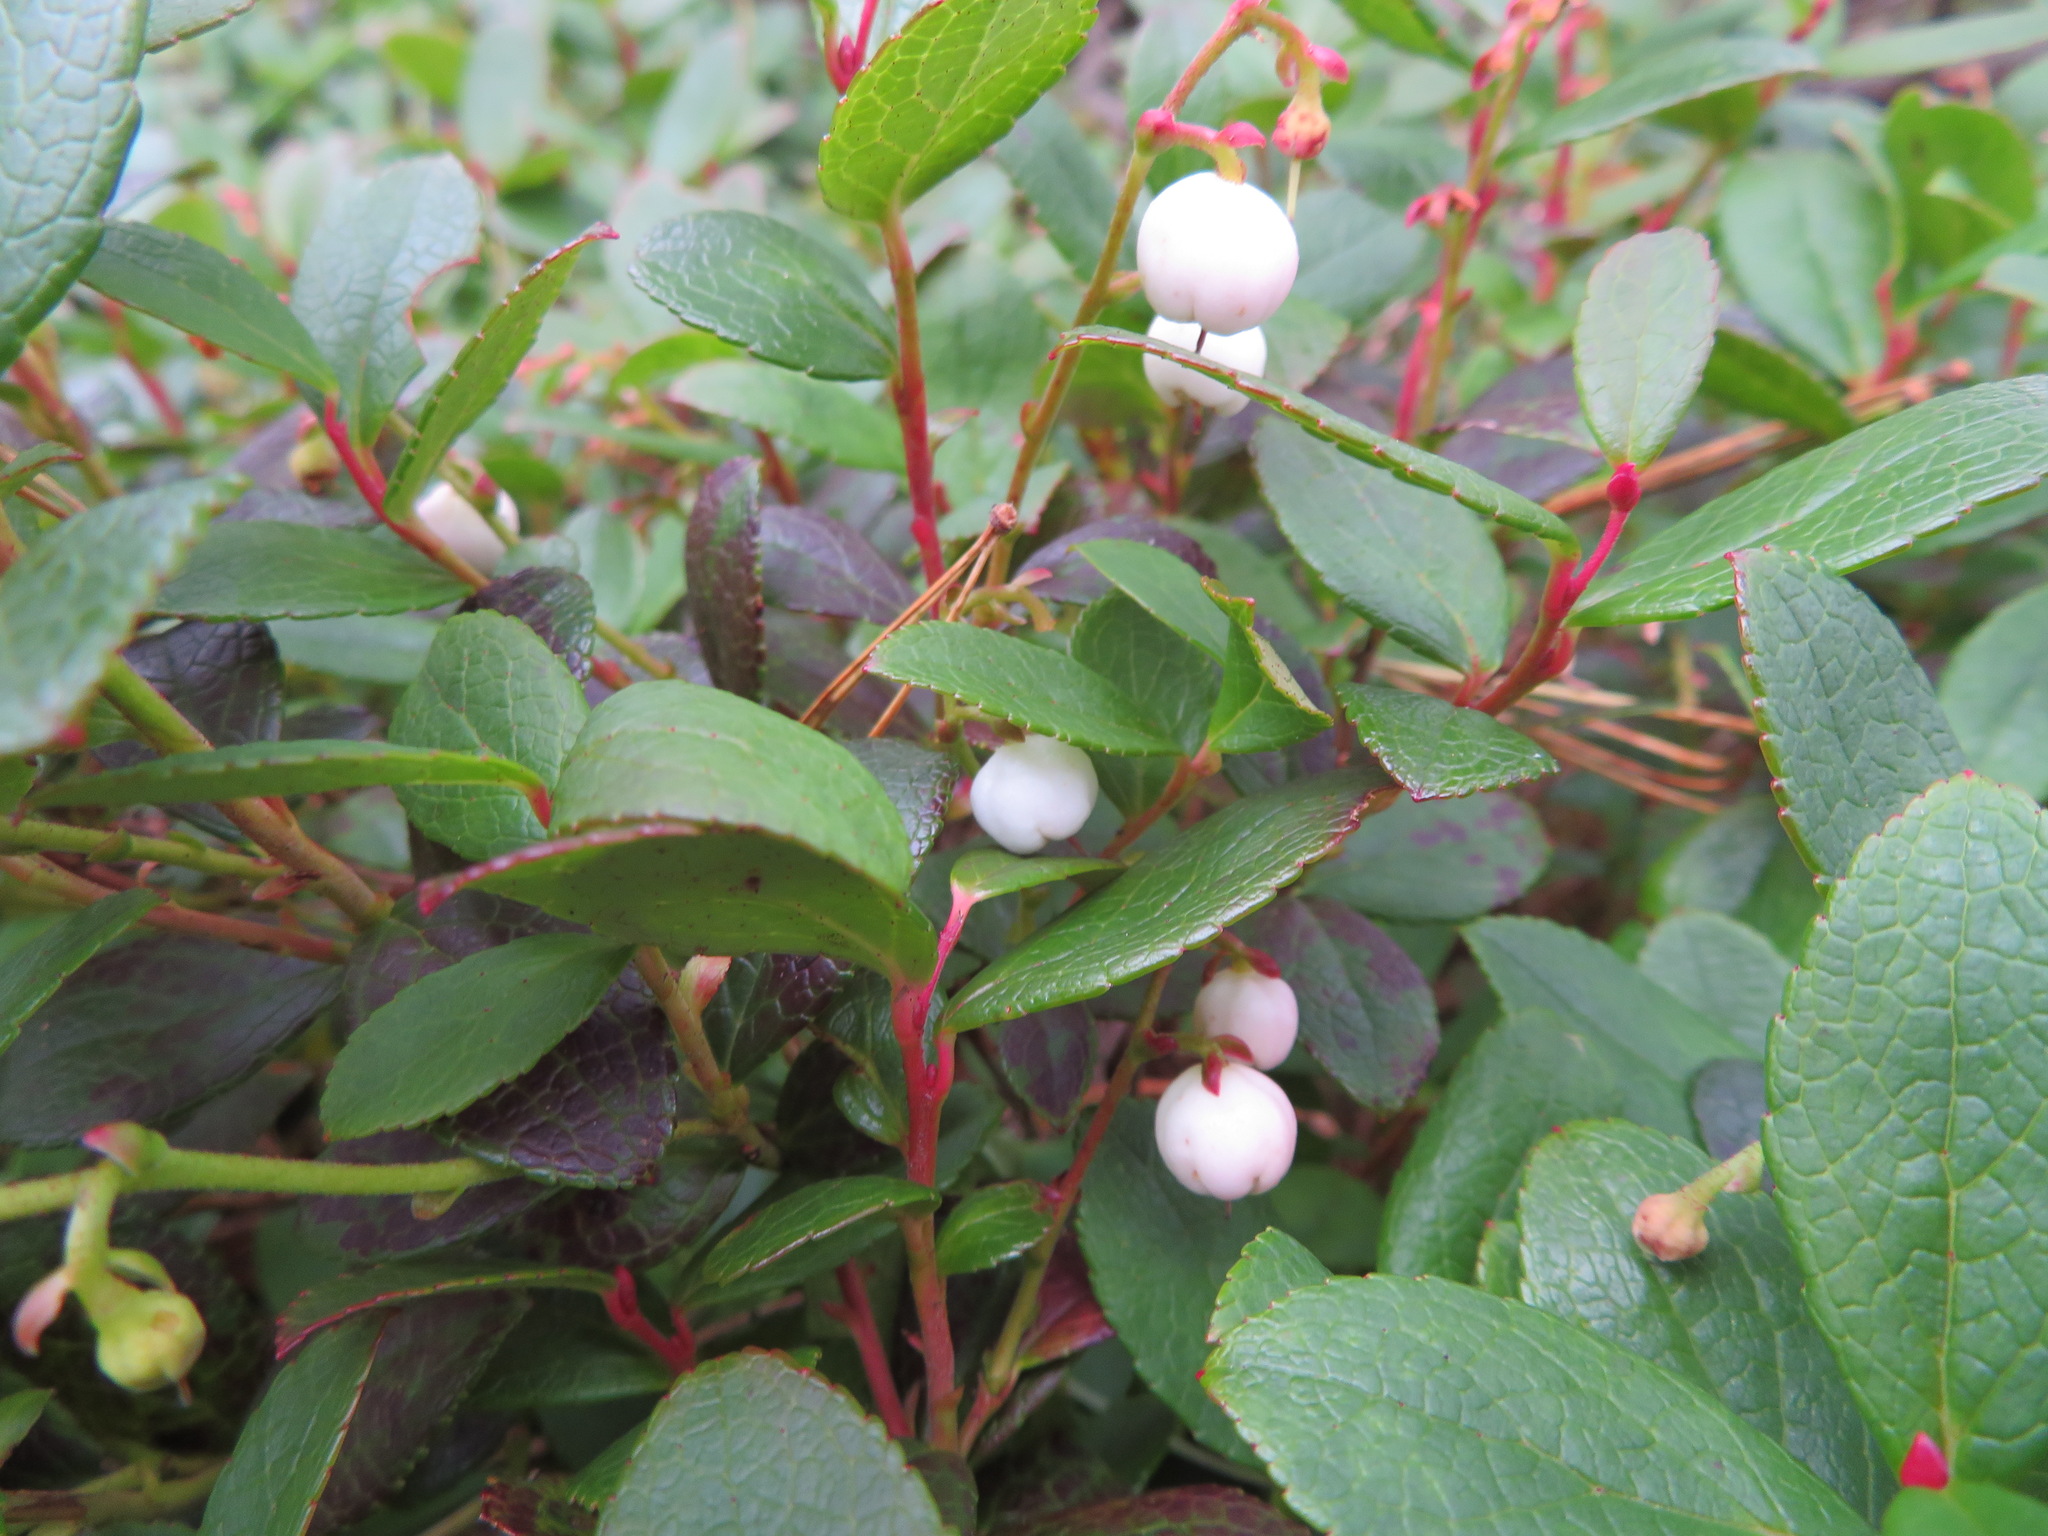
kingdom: Plantae
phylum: Tracheophyta
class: Magnoliopsida
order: Ericales
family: Ericaceae
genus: Gaultheria
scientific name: Gaultheria pyroloides
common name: Japanese wintergreen
